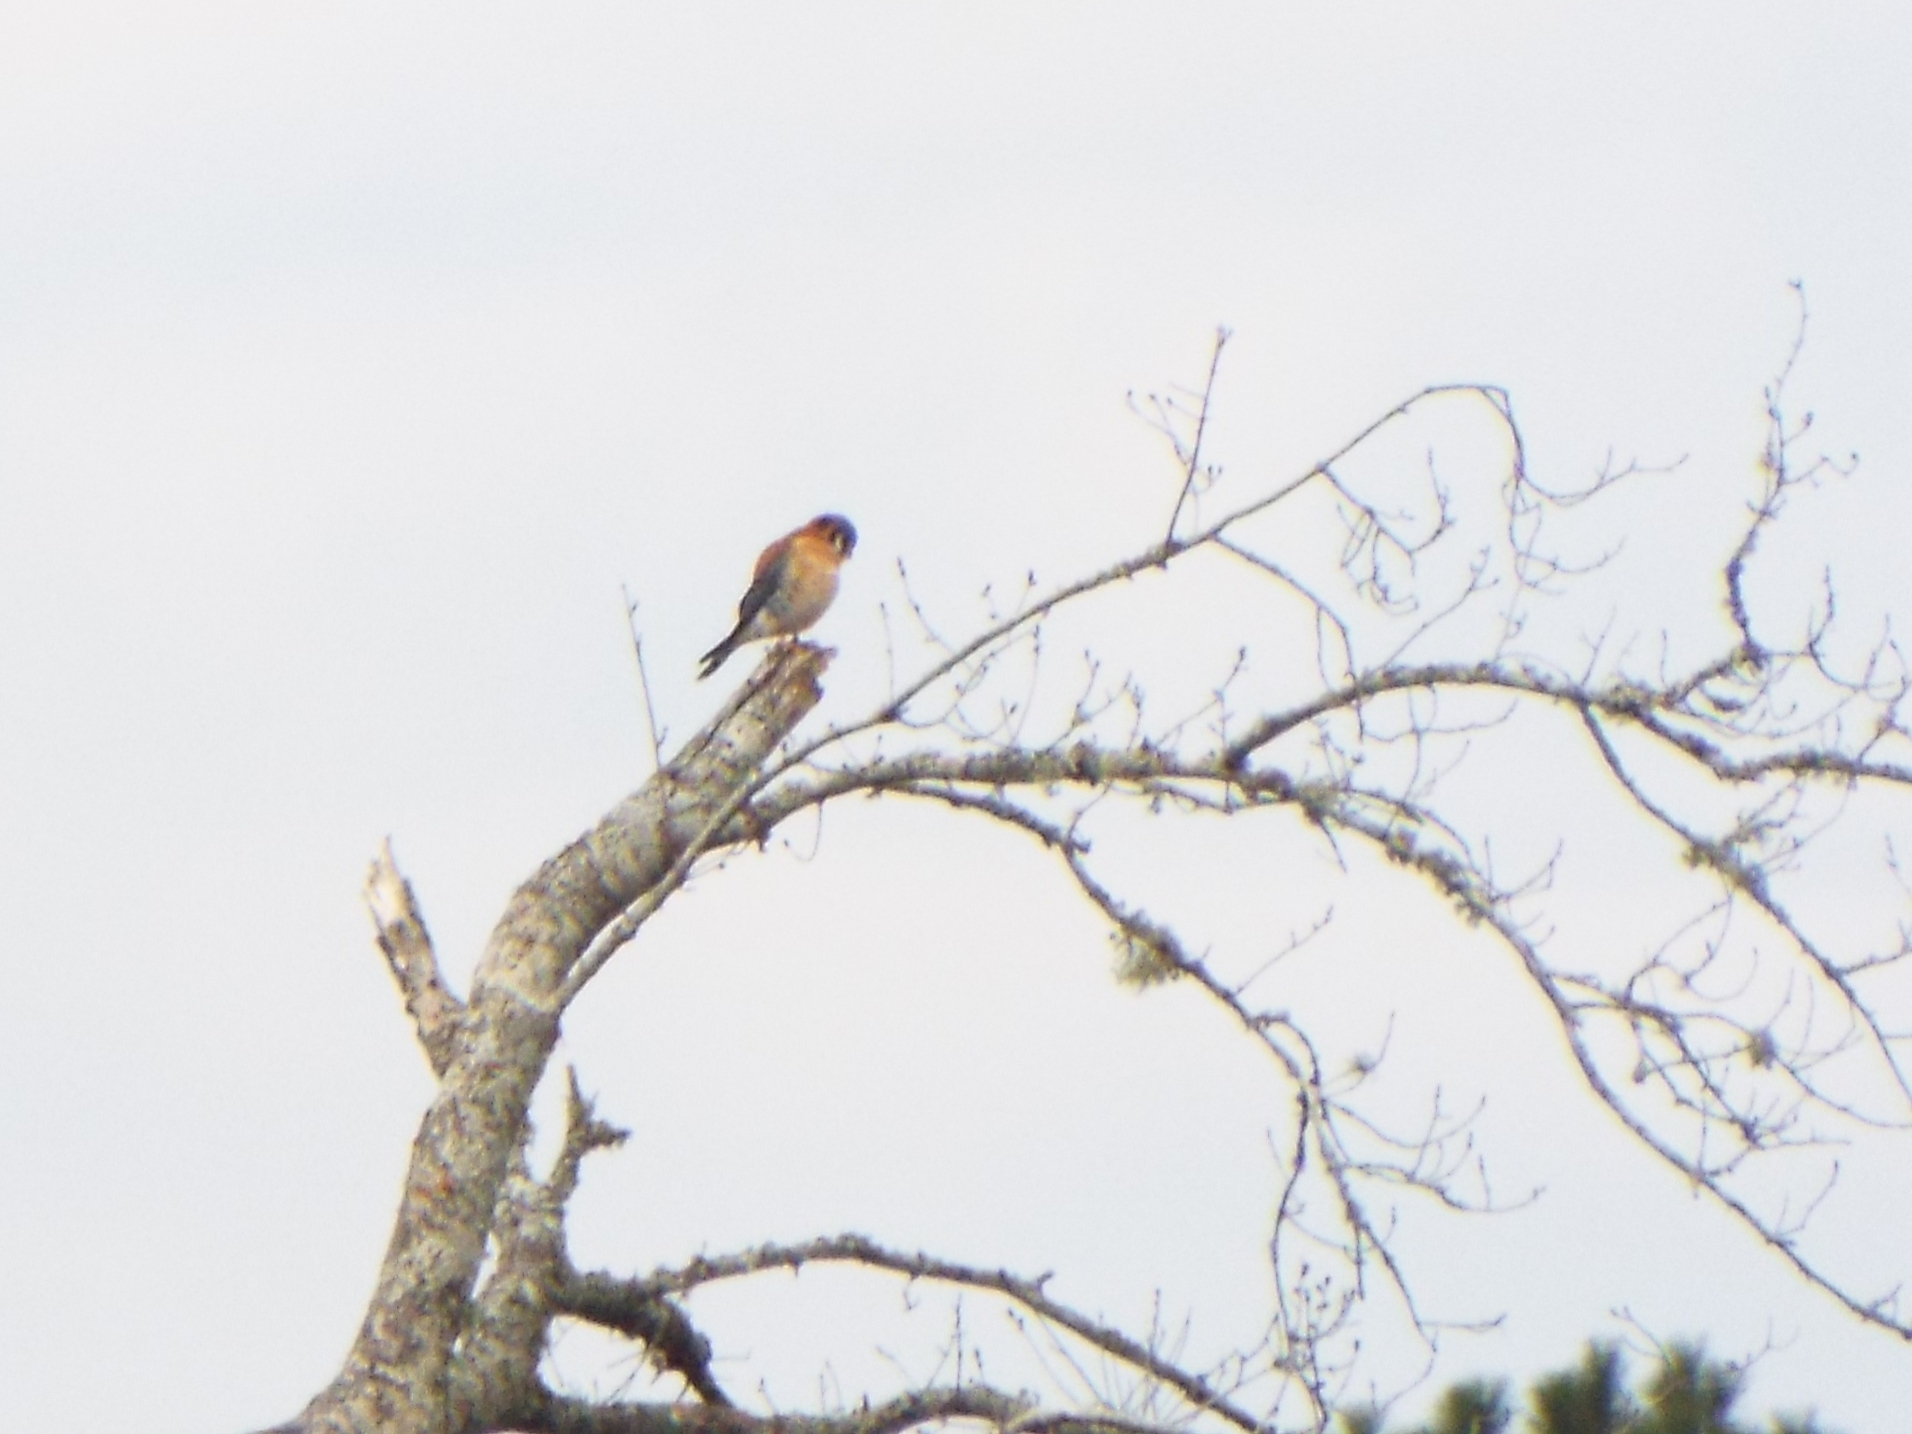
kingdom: Animalia
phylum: Chordata
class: Aves
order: Falconiformes
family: Falconidae
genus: Falco
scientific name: Falco sparverius
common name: American kestrel
